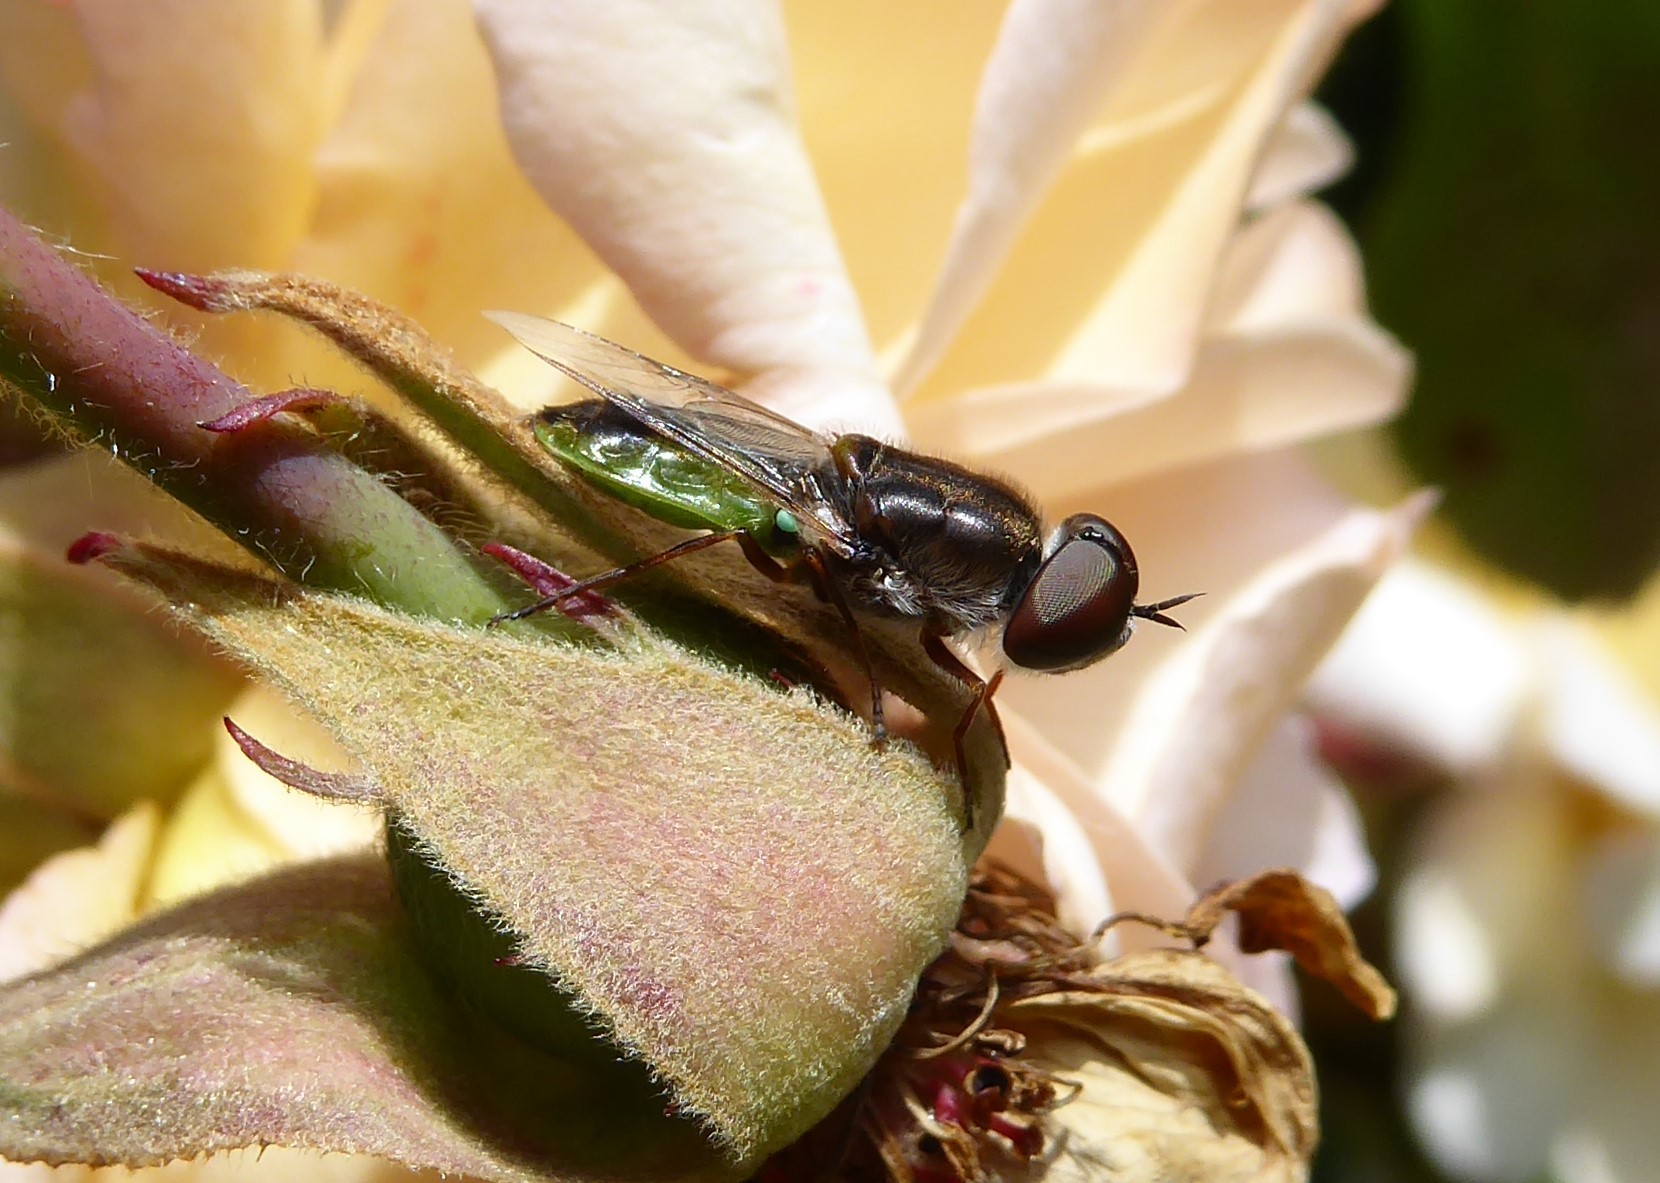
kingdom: Animalia
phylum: Arthropoda
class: Insecta
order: Diptera
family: Stratiomyidae
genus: Odontomyia
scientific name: Odontomyia fulviceps
